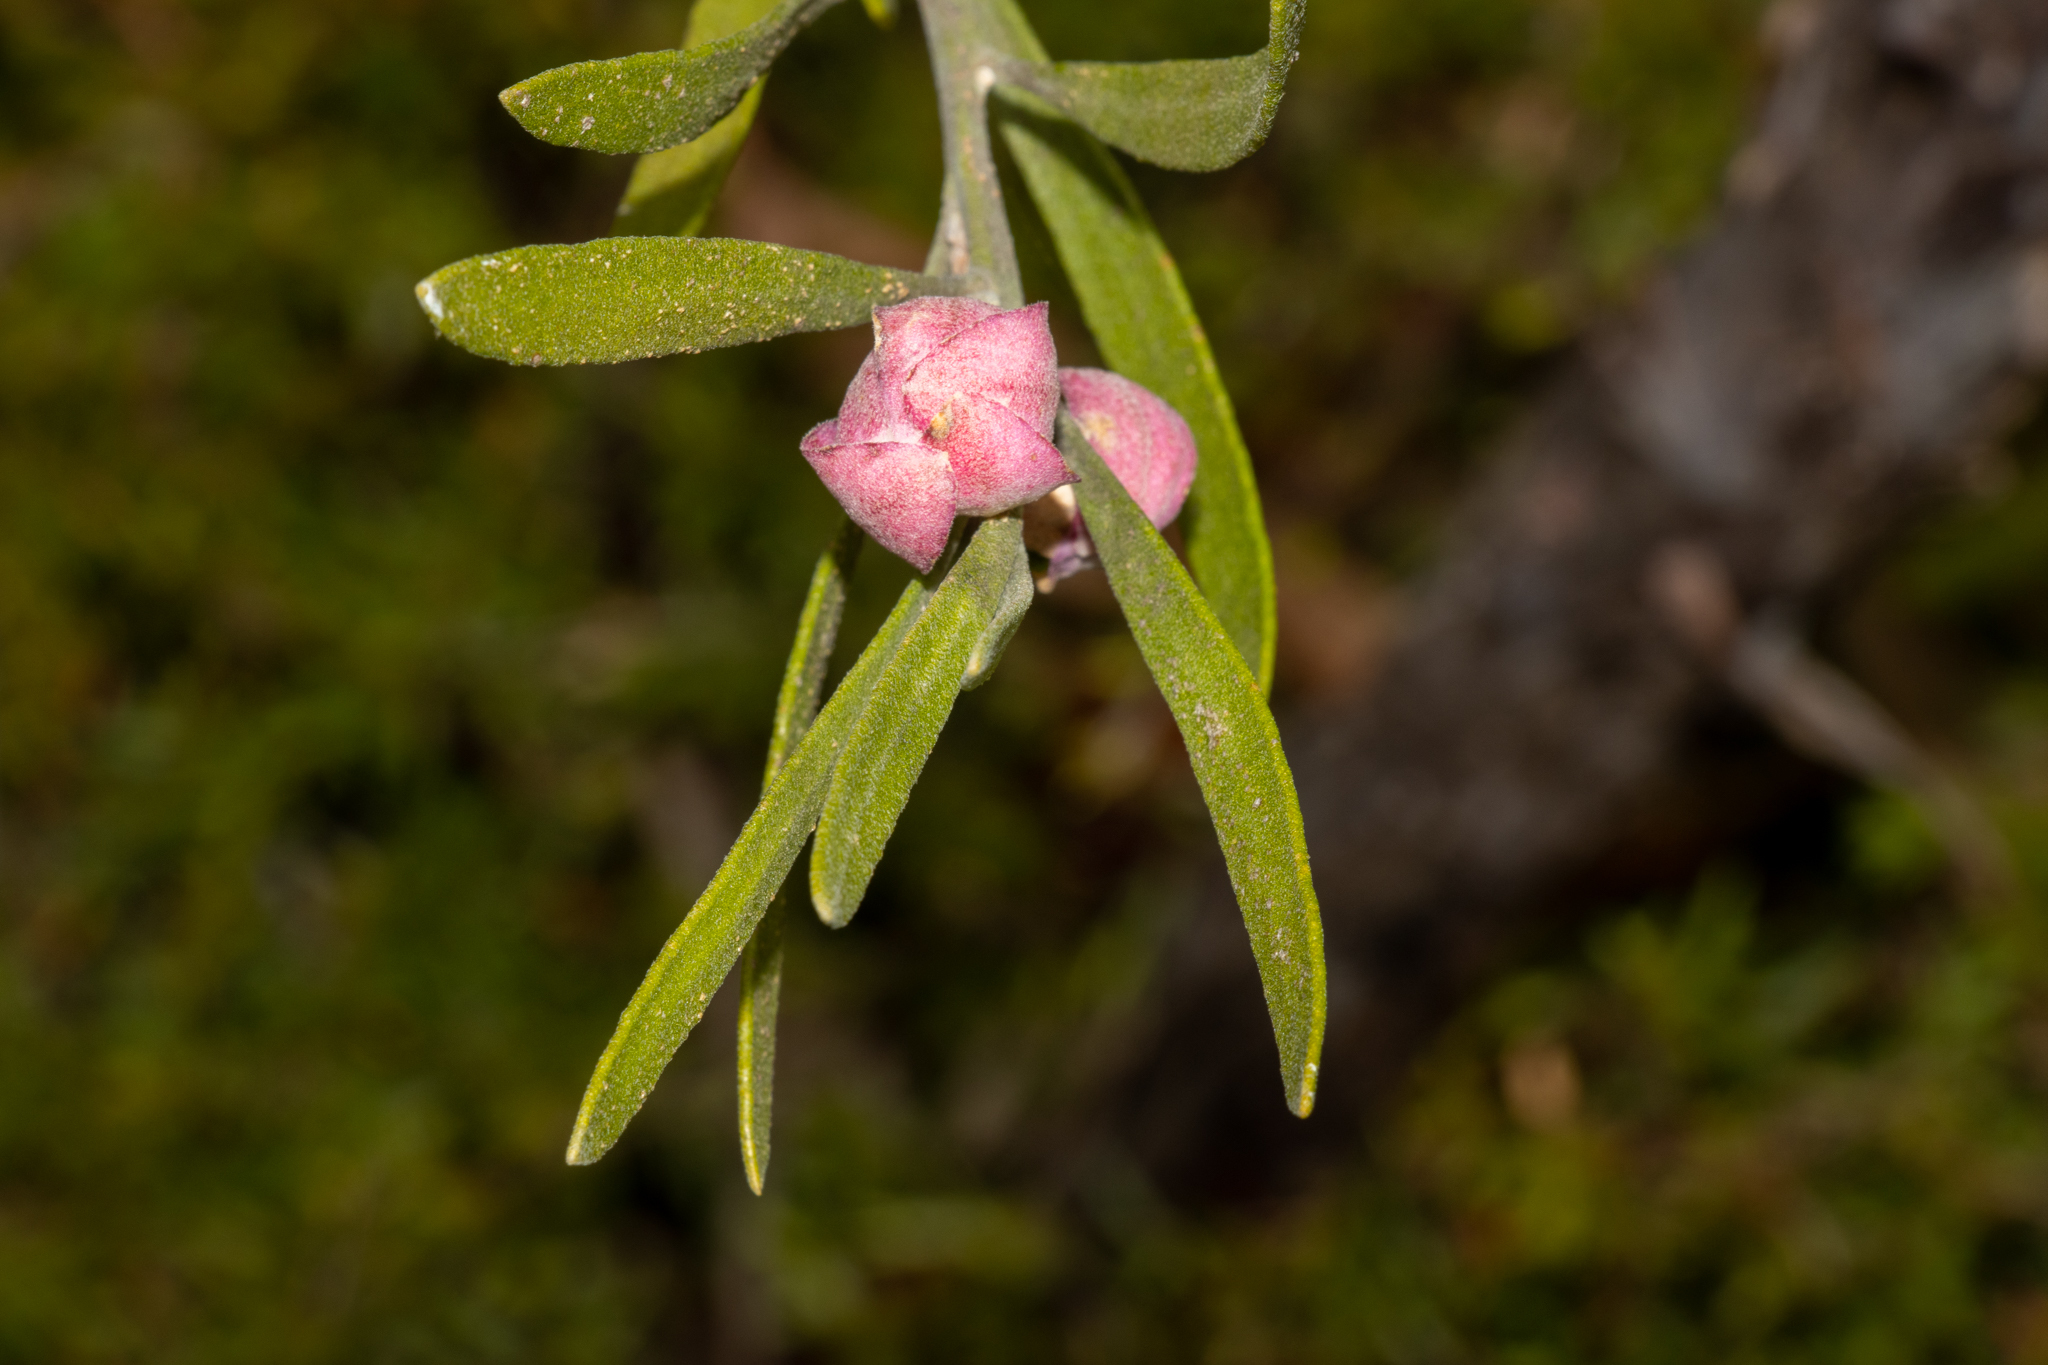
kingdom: Plantae
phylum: Tracheophyta
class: Magnoliopsida
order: Sapindales
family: Rutaceae
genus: Eriostemon
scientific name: Eriostemon australasius
